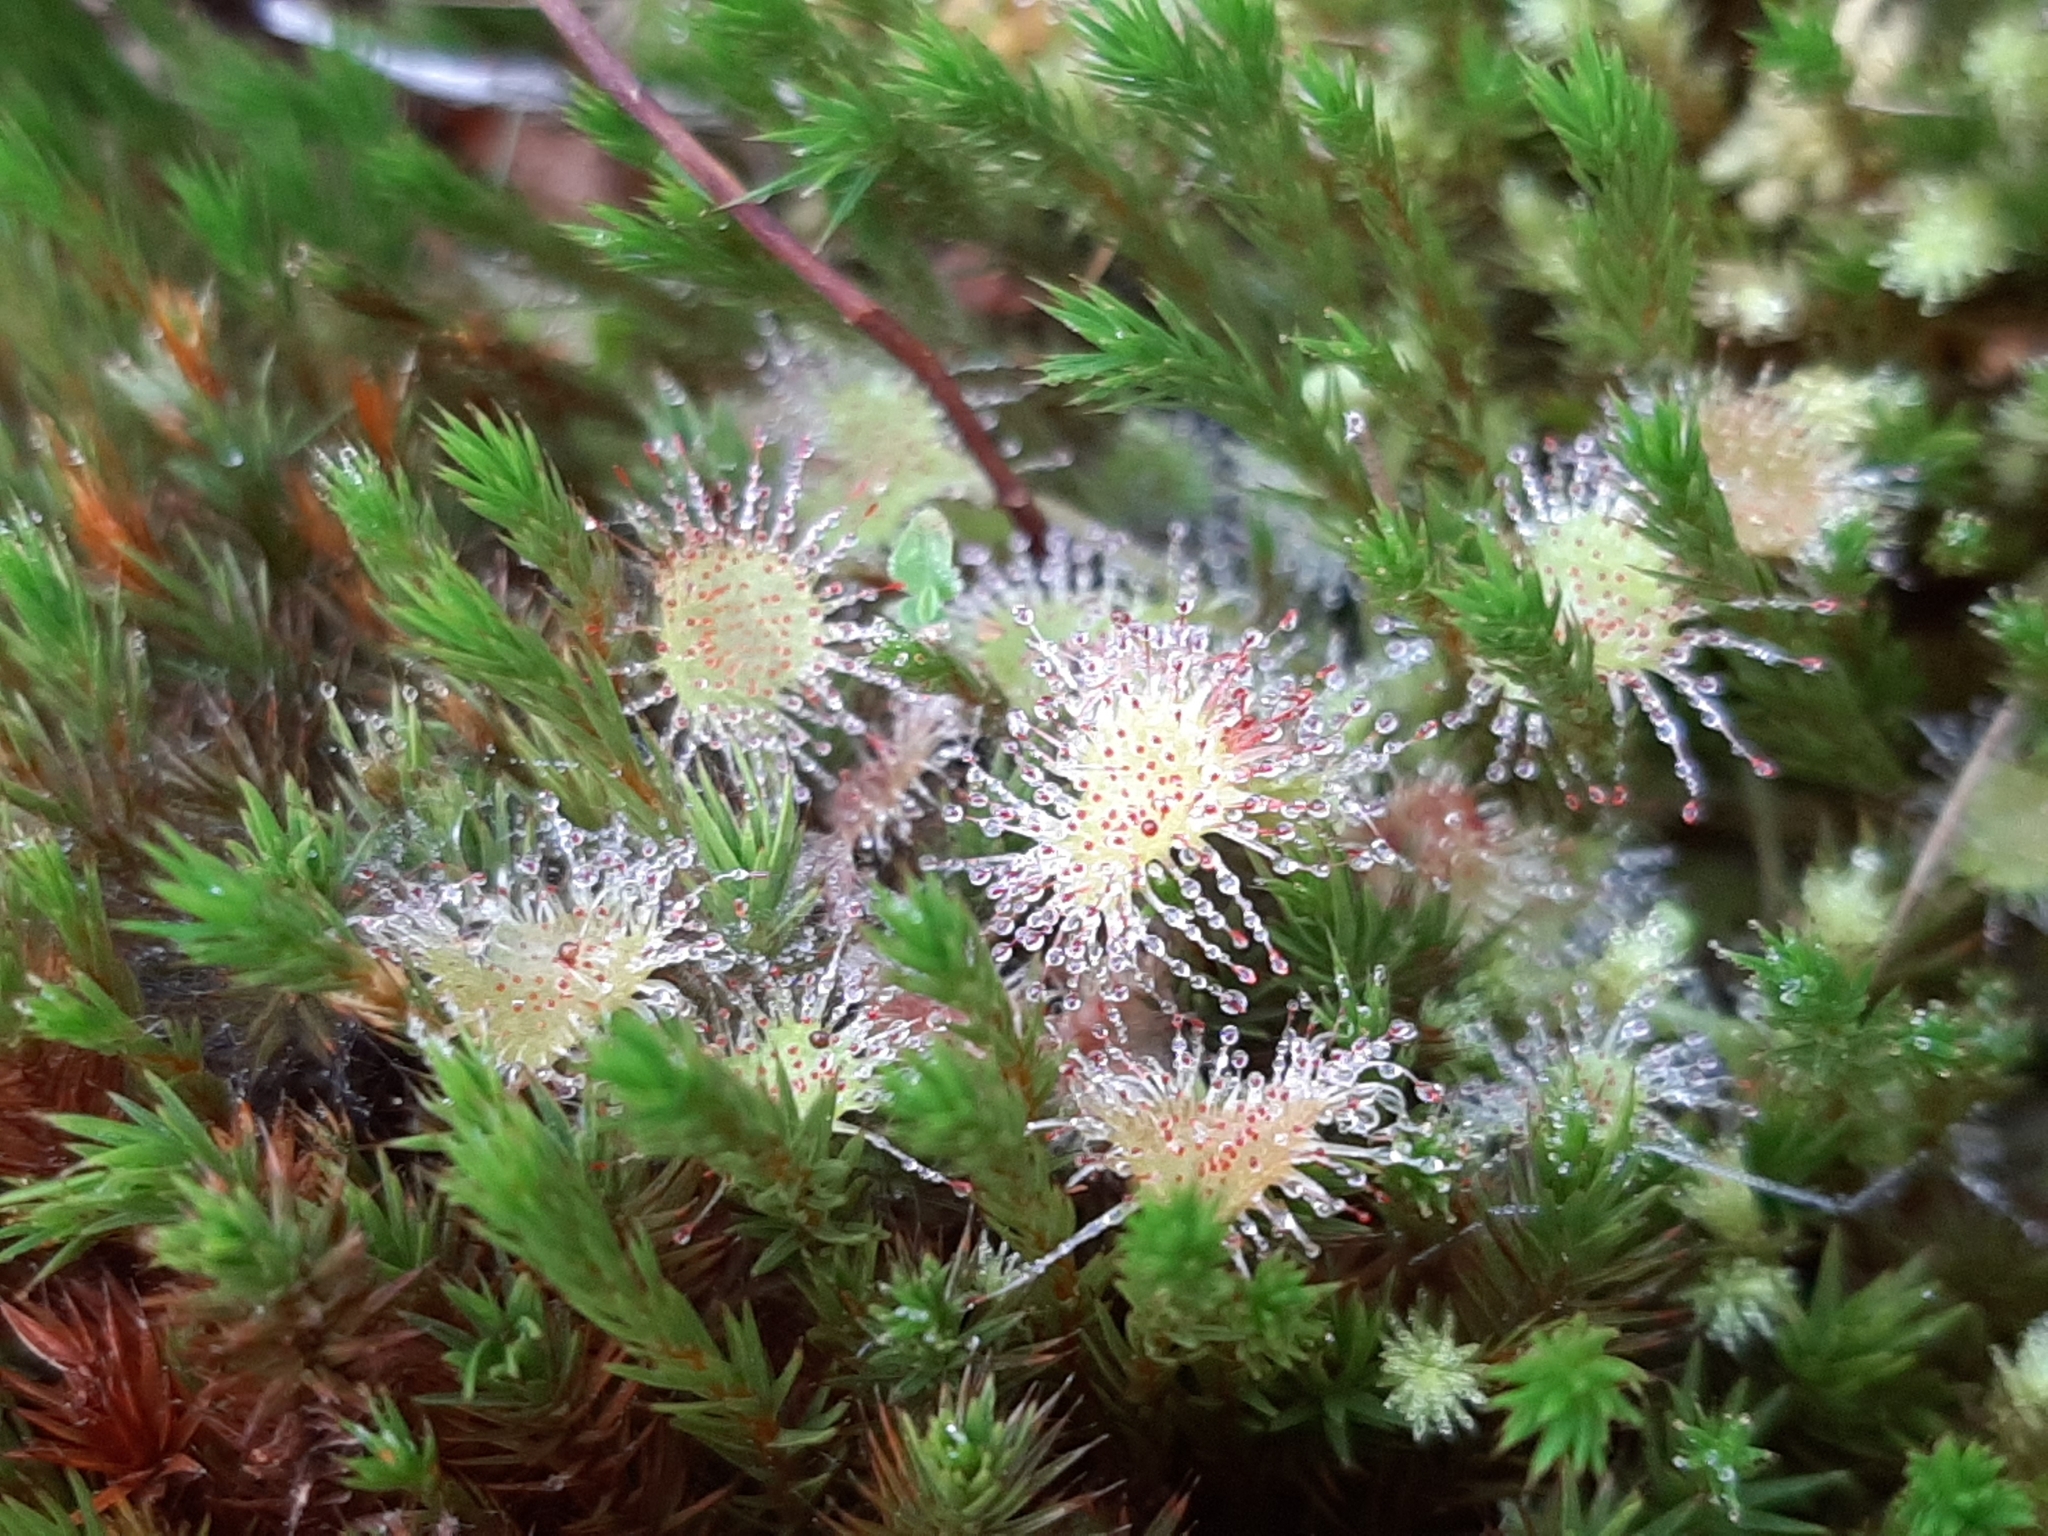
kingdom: Plantae
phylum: Tracheophyta
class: Magnoliopsida
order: Caryophyllales
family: Droseraceae
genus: Drosera
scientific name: Drosera rotundifolia
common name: Round-leaved sundew
